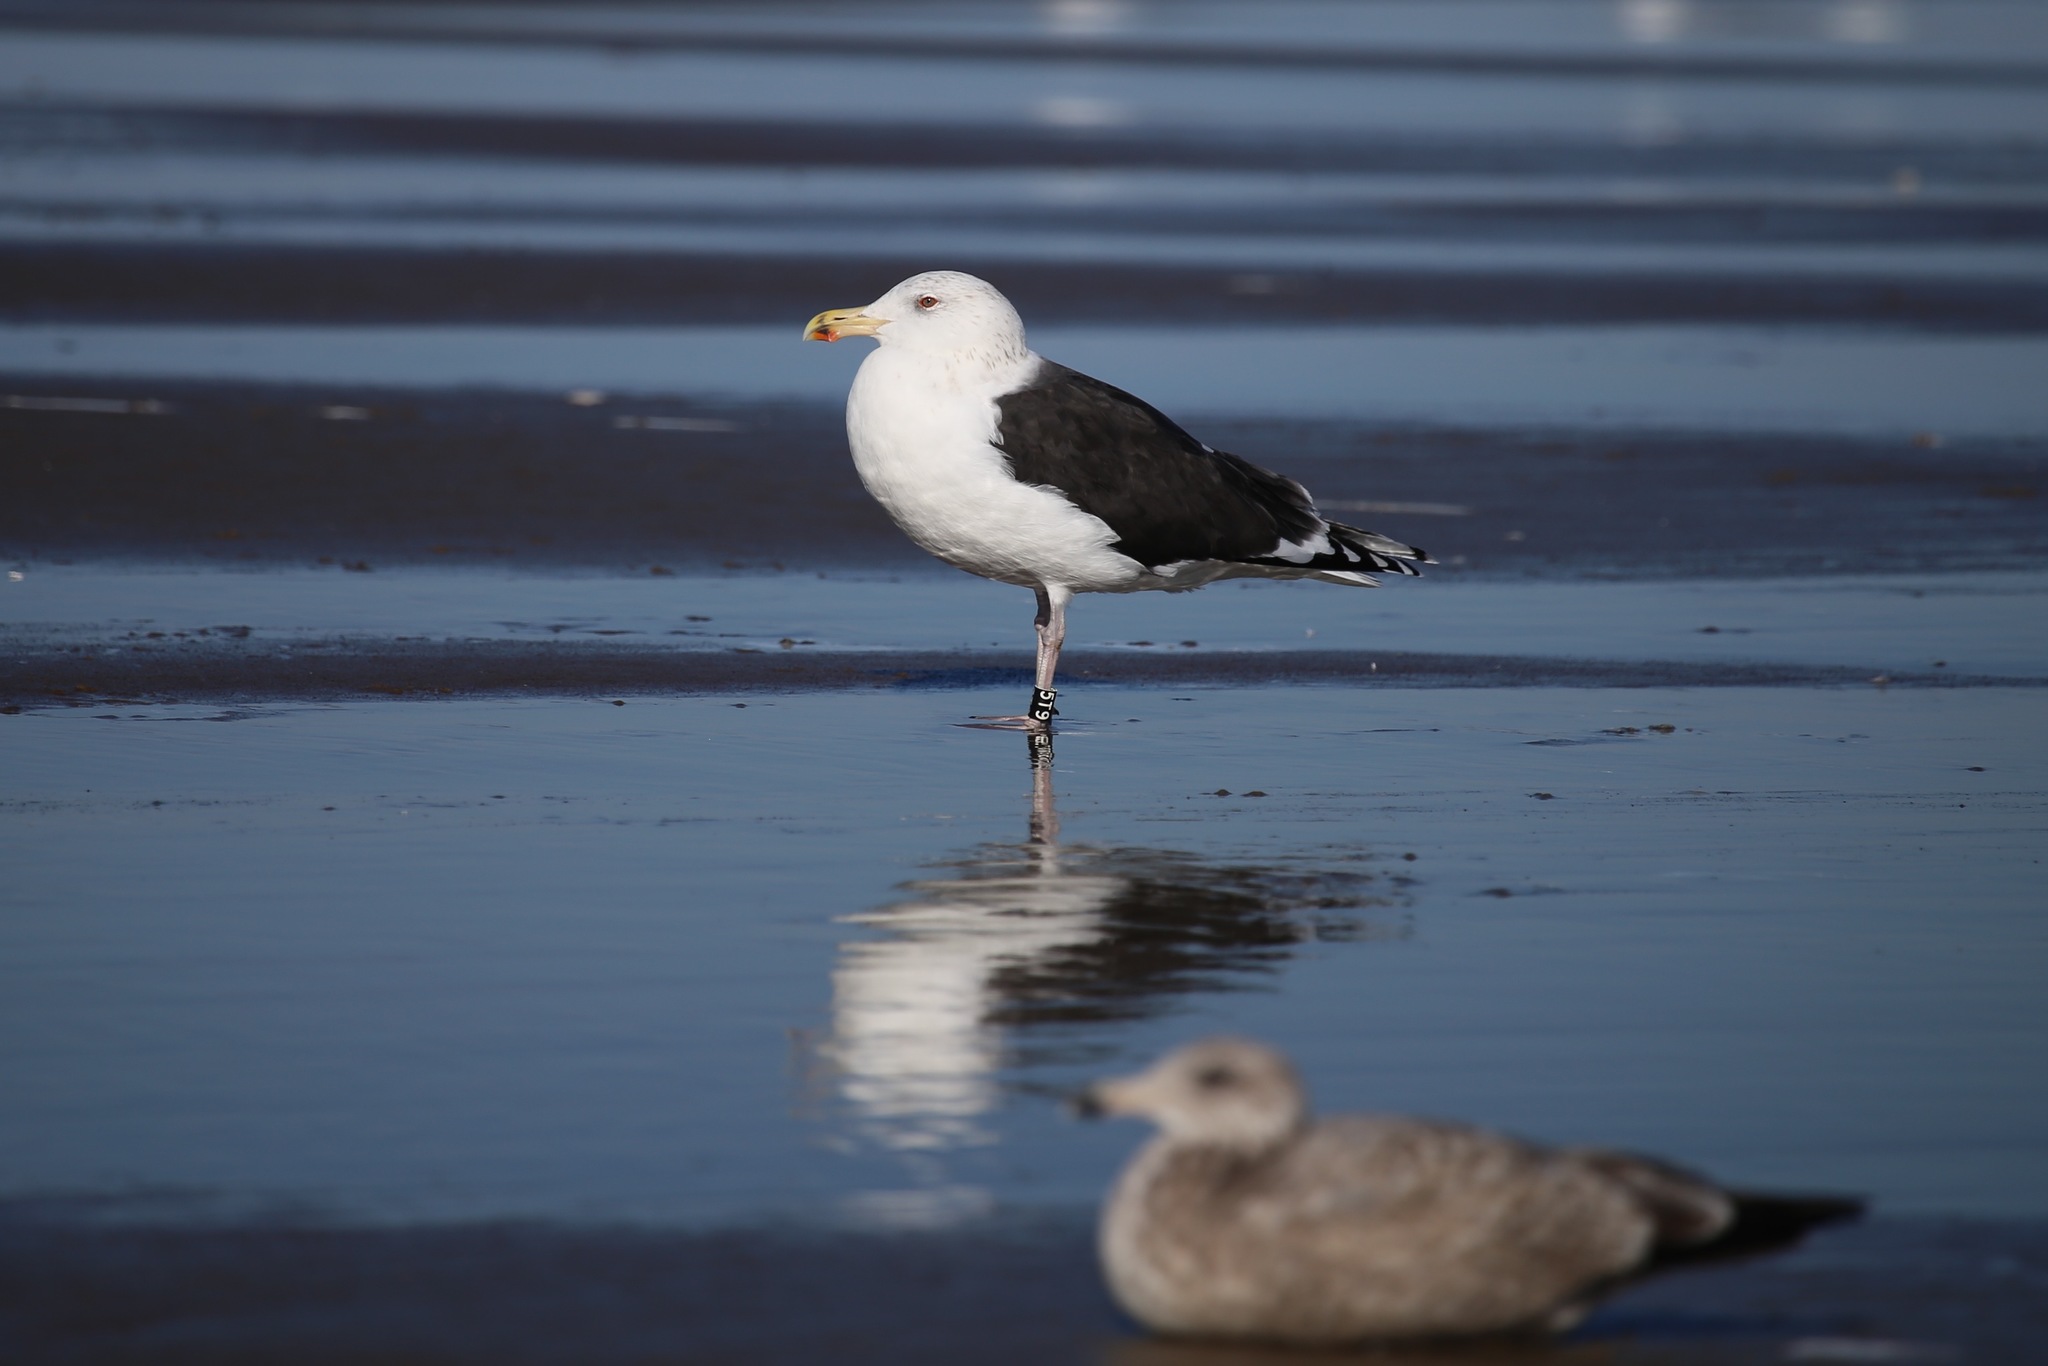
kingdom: Animalia
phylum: Chordata
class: Aves
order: Charadriiformes
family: Laridae
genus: Larus
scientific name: Larus marinus
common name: Great black-backed gull
